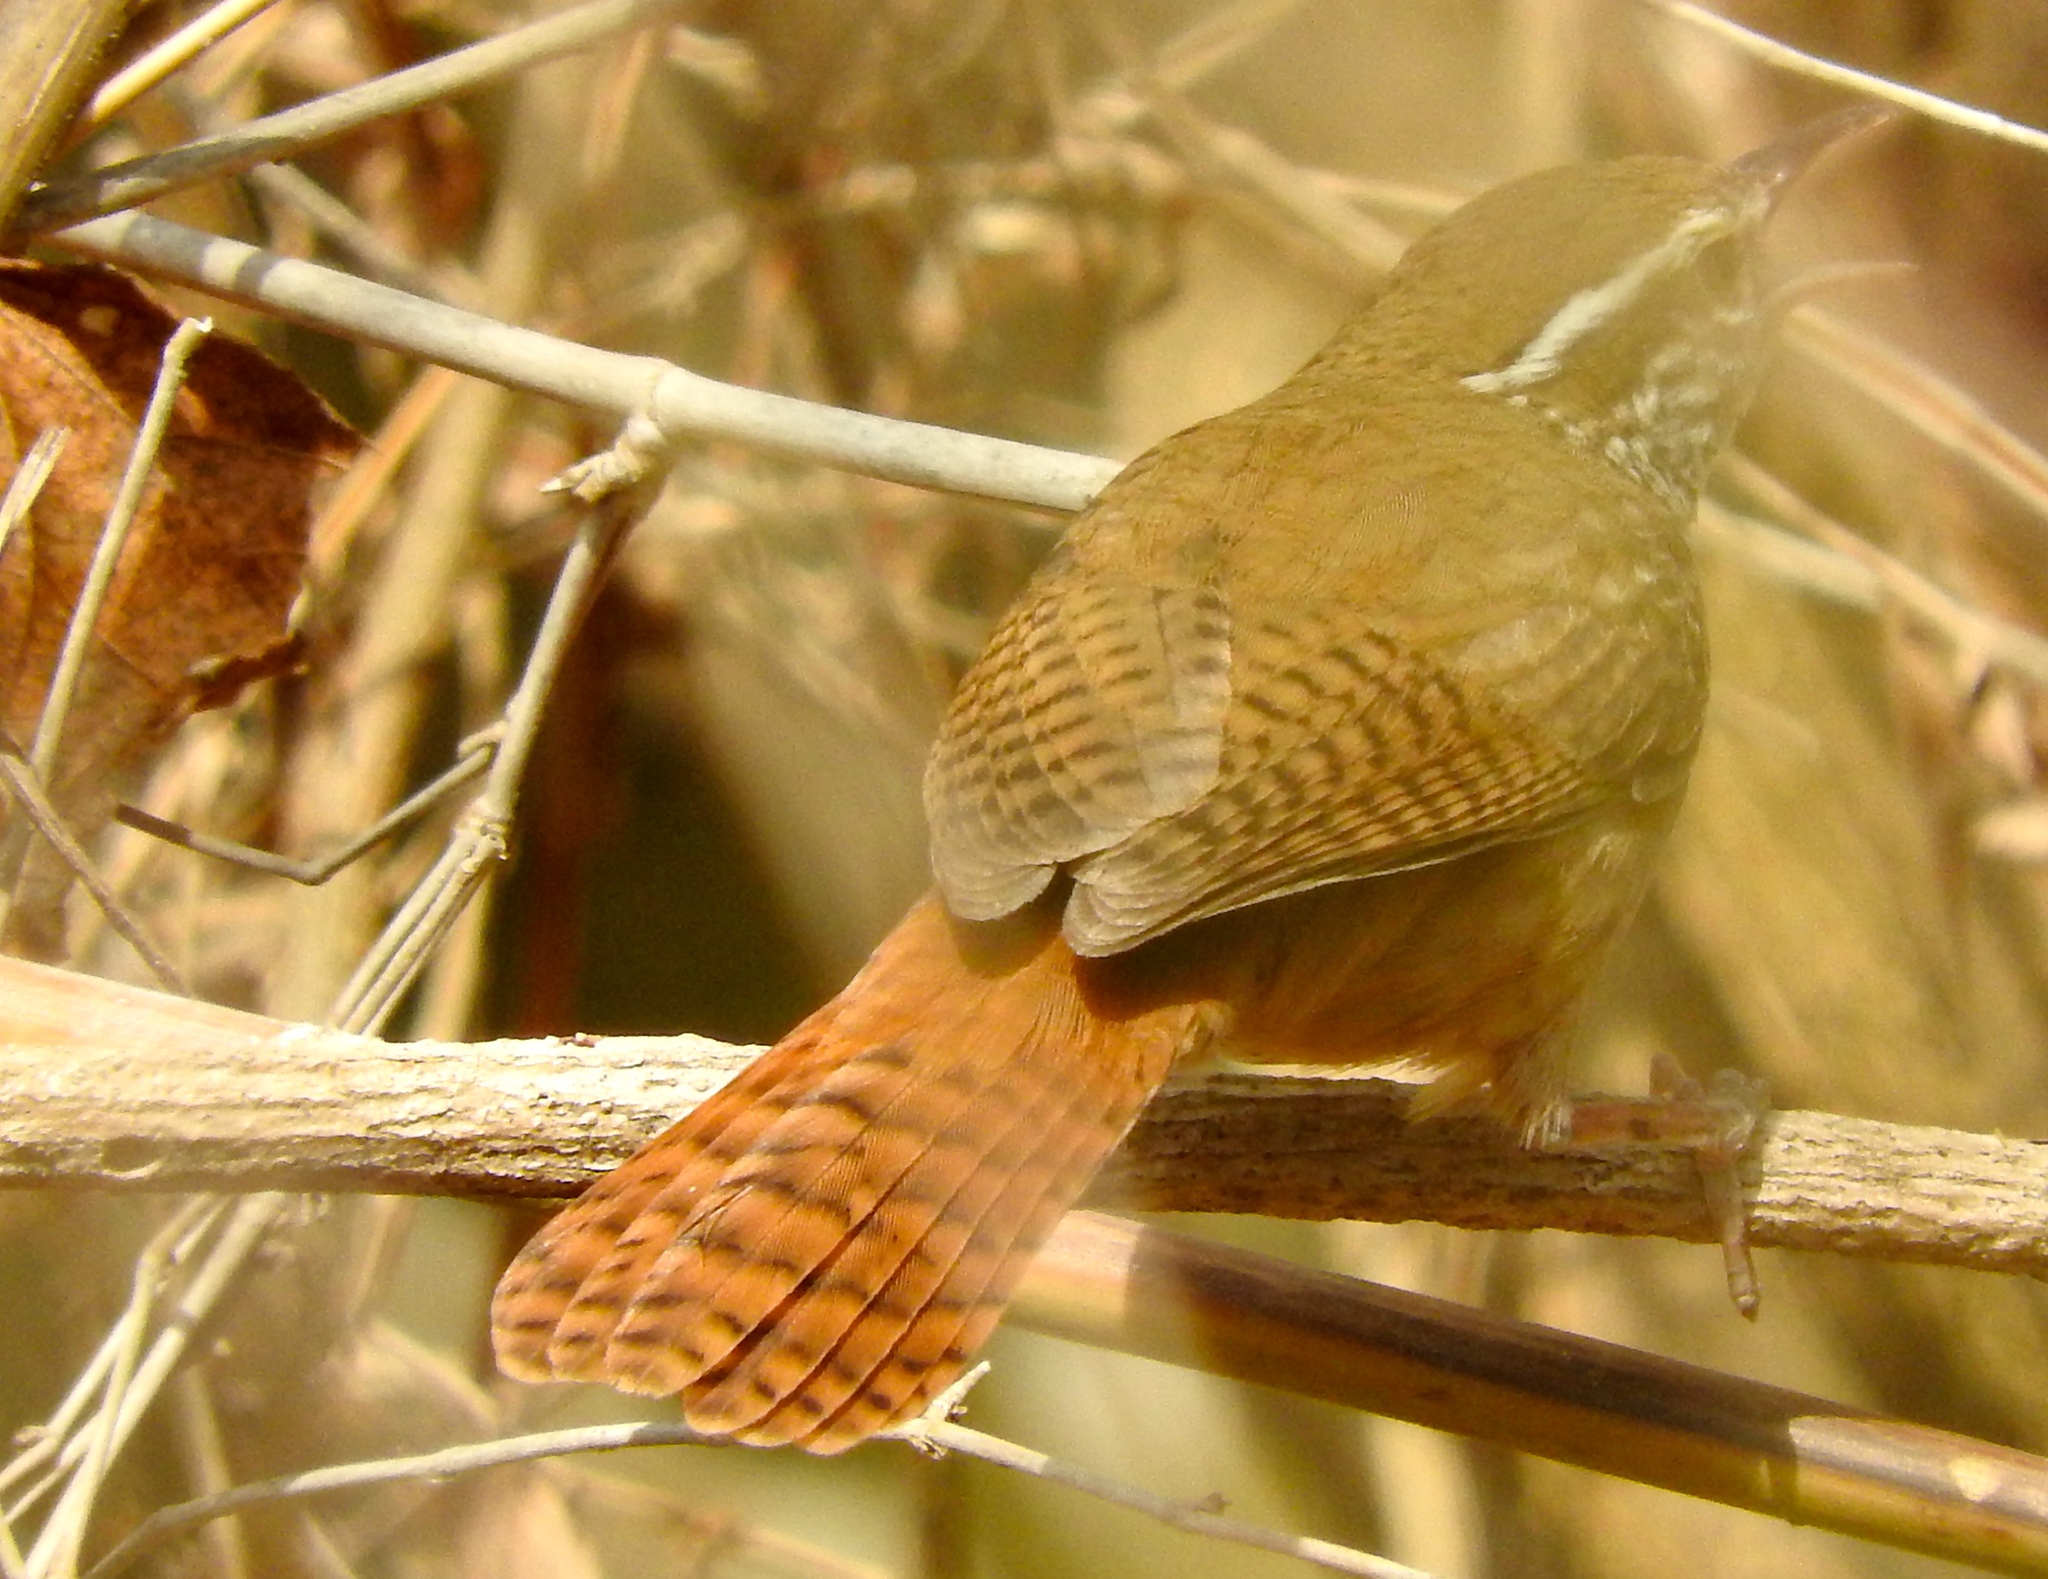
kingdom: Animalia
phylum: Chordata
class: Aves
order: Passeriformes
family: Troglodytidae
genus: Thryophilus
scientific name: Thryophilus sinaloa
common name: Sinaloa wren
